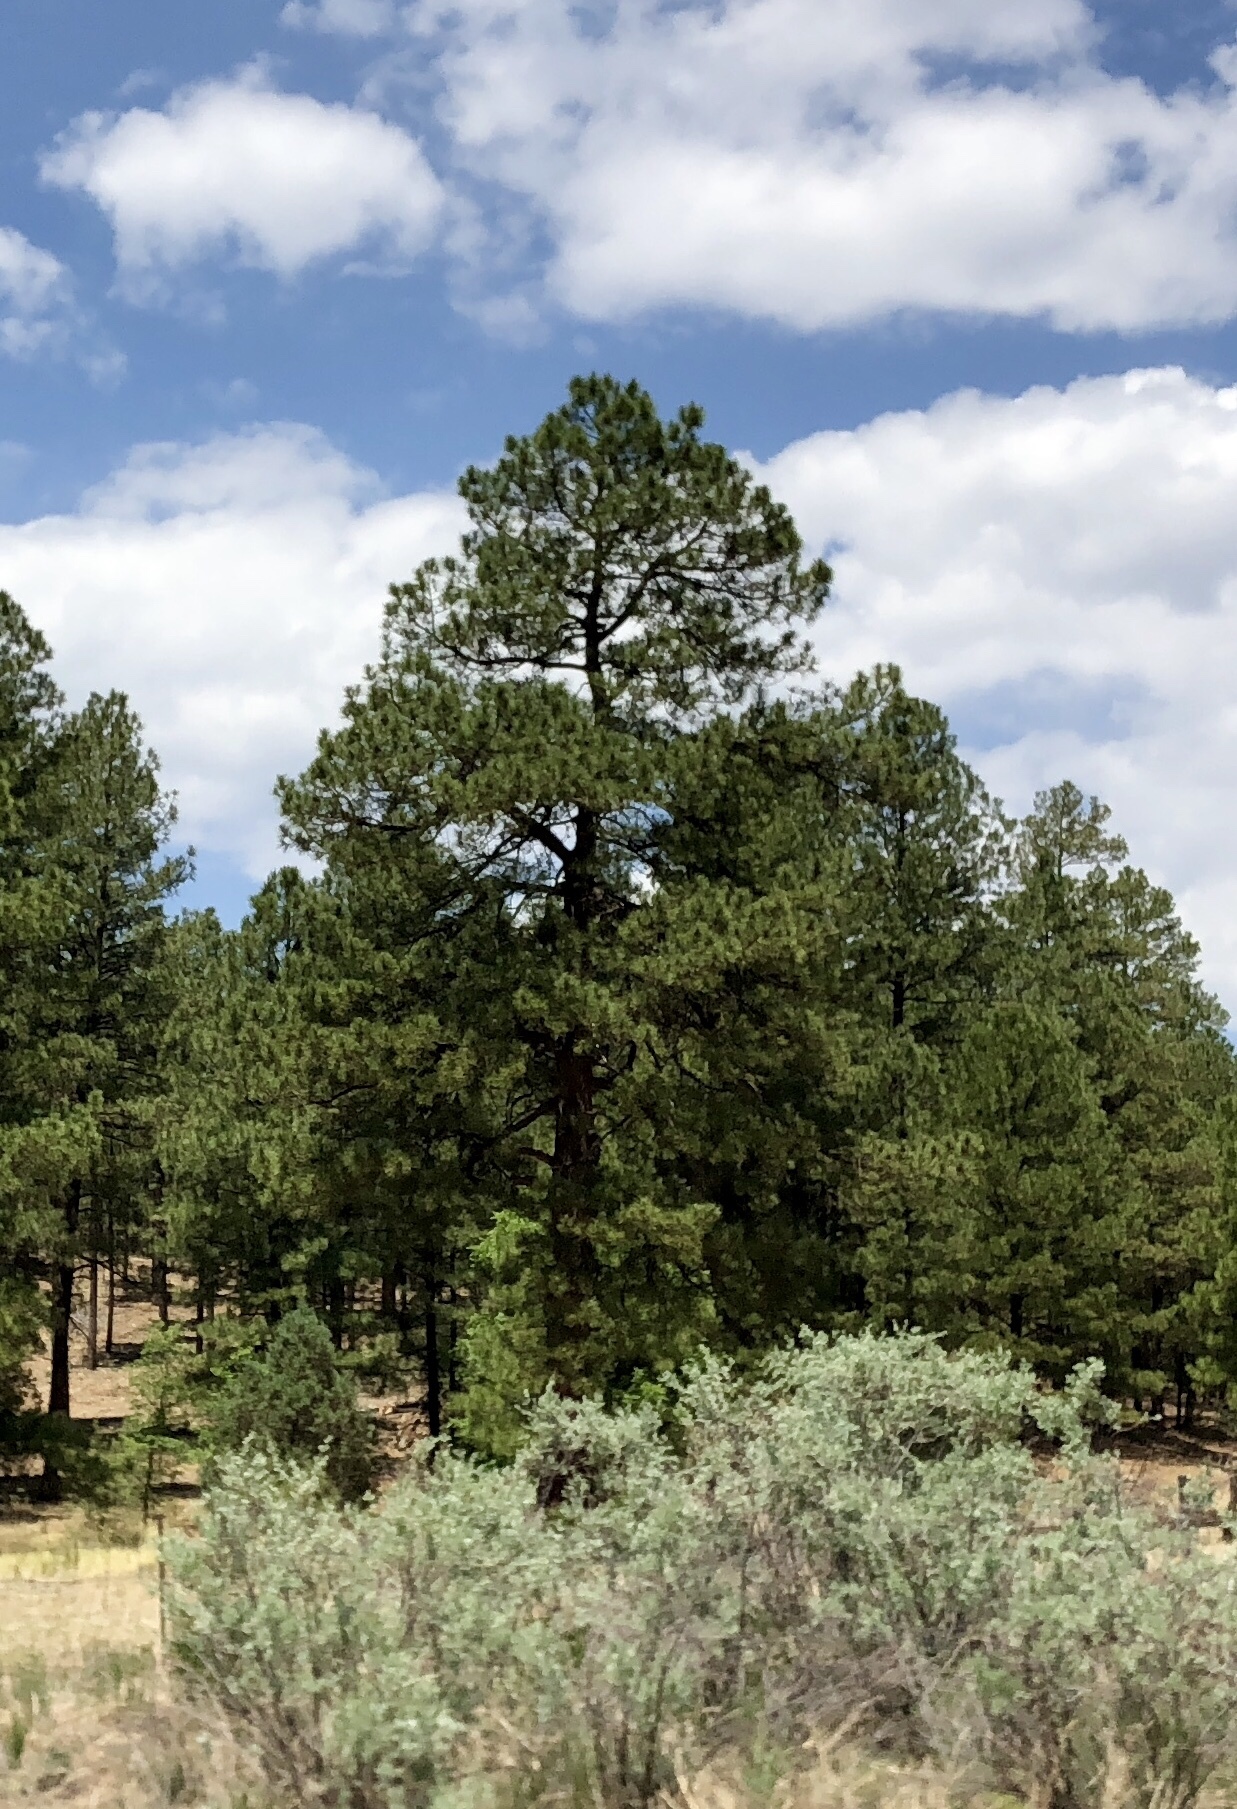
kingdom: Plantae
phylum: Tracheophyta
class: Pinopsida
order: Pinales
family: Pinaceae
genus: Pinus
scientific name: Pinus ponderosa
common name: Western yellow-pine
